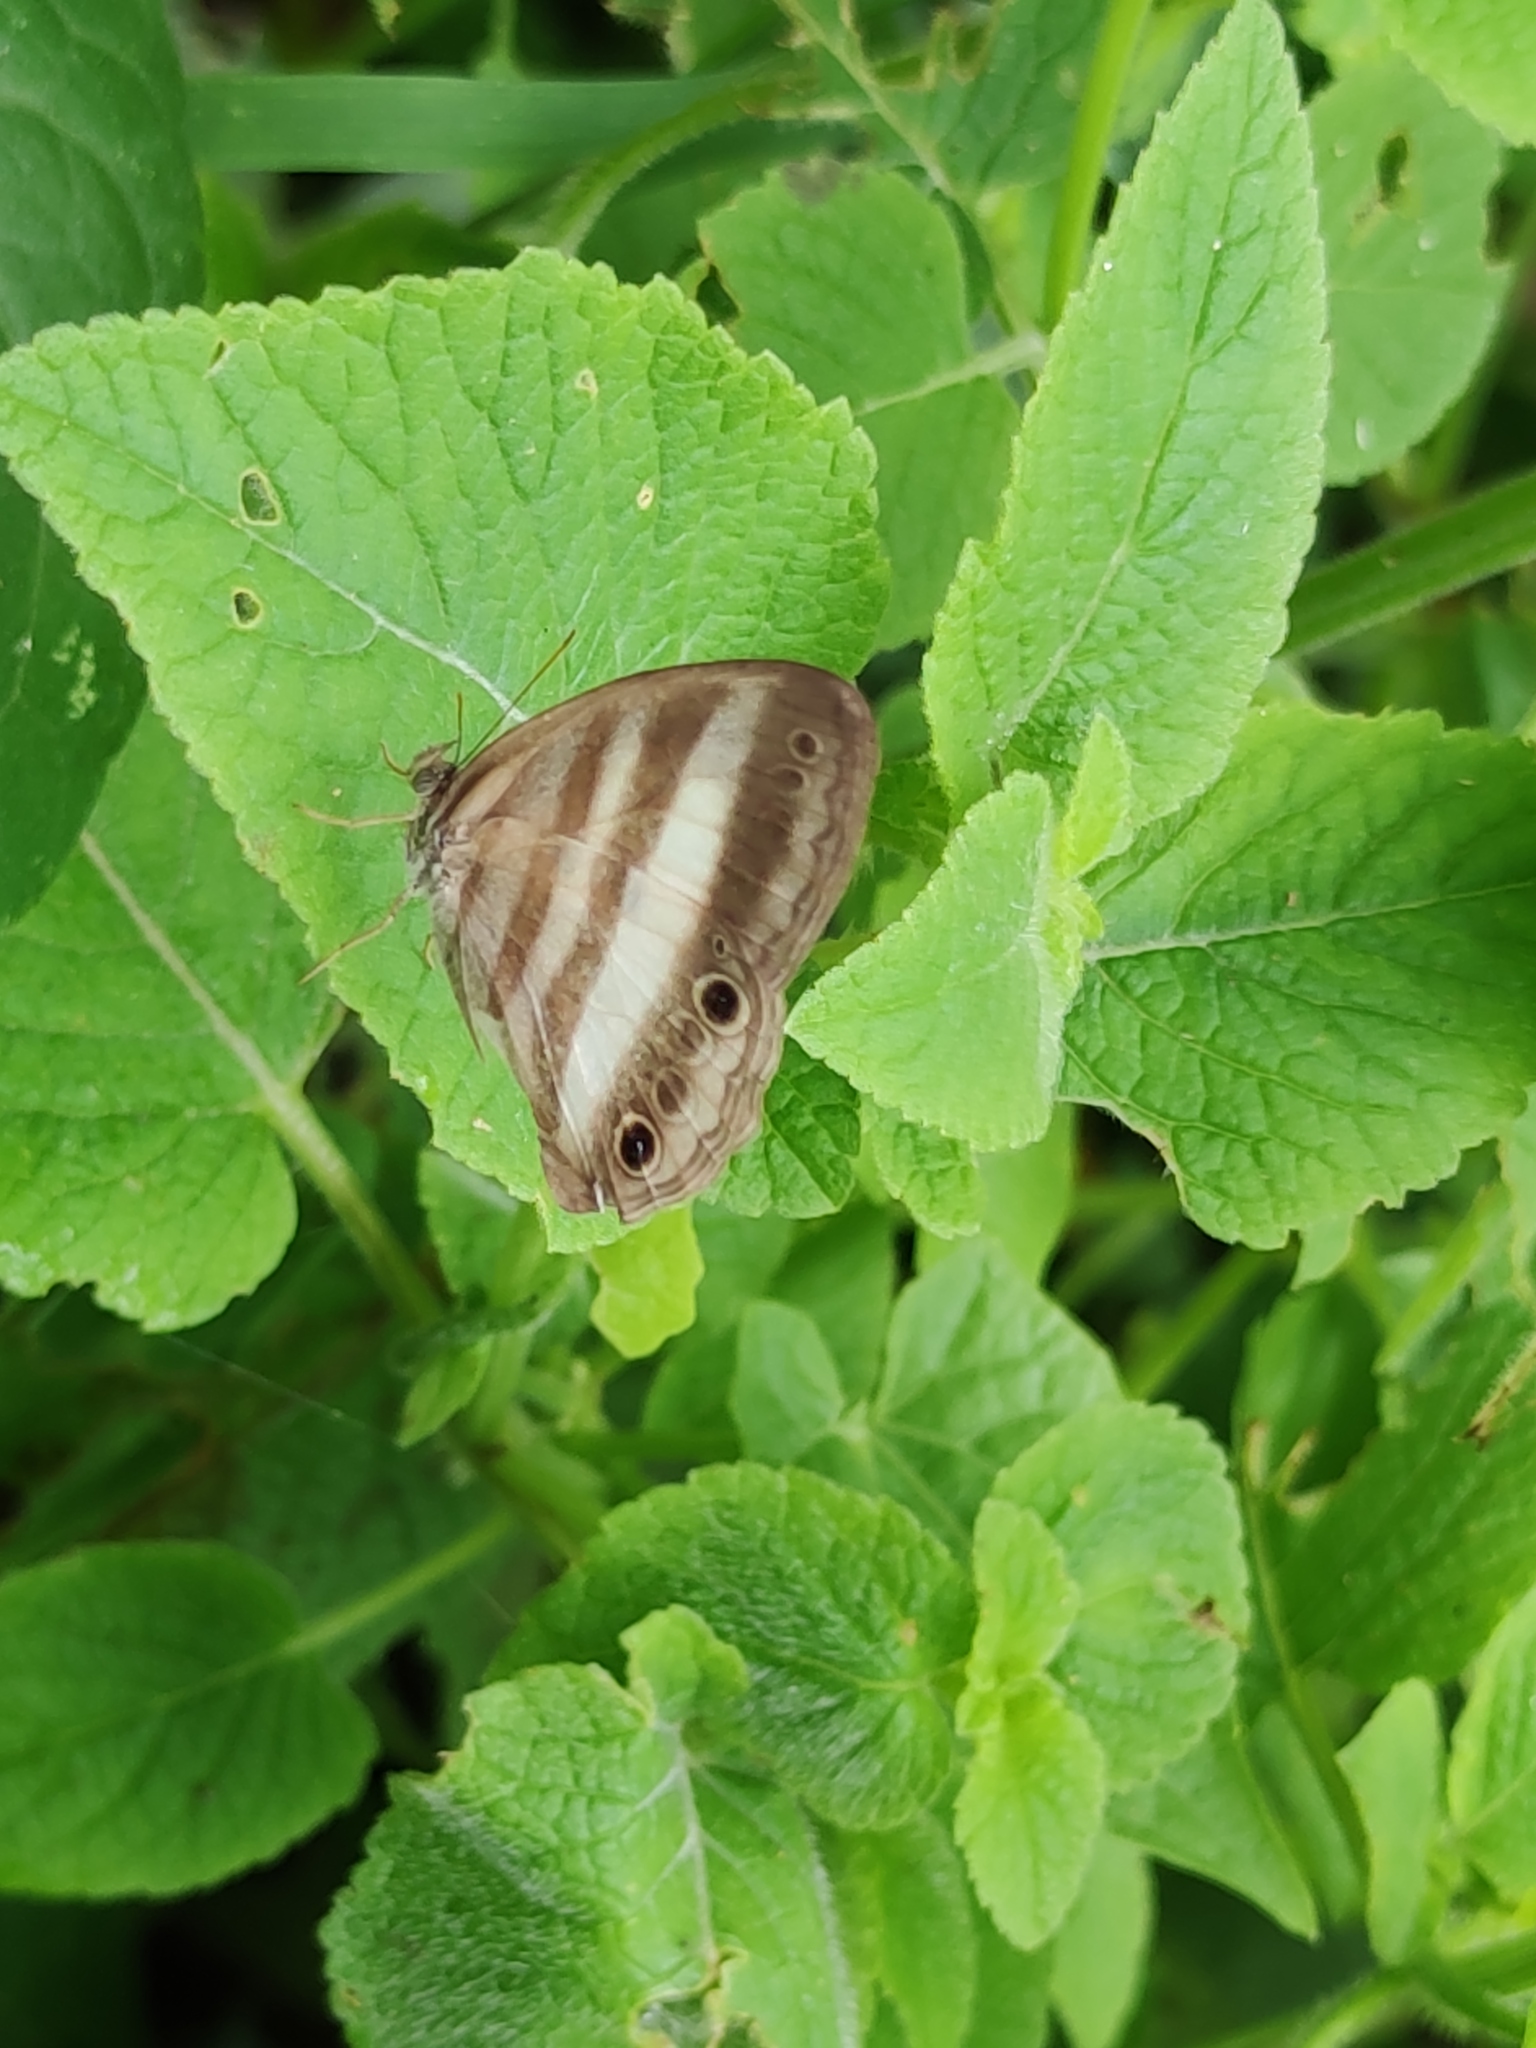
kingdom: Animalia
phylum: Arthropoda
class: Insecta
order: Lepidoptera
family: Nymphalidae
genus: Pareuptychia
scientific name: Pareuptychia hesione
